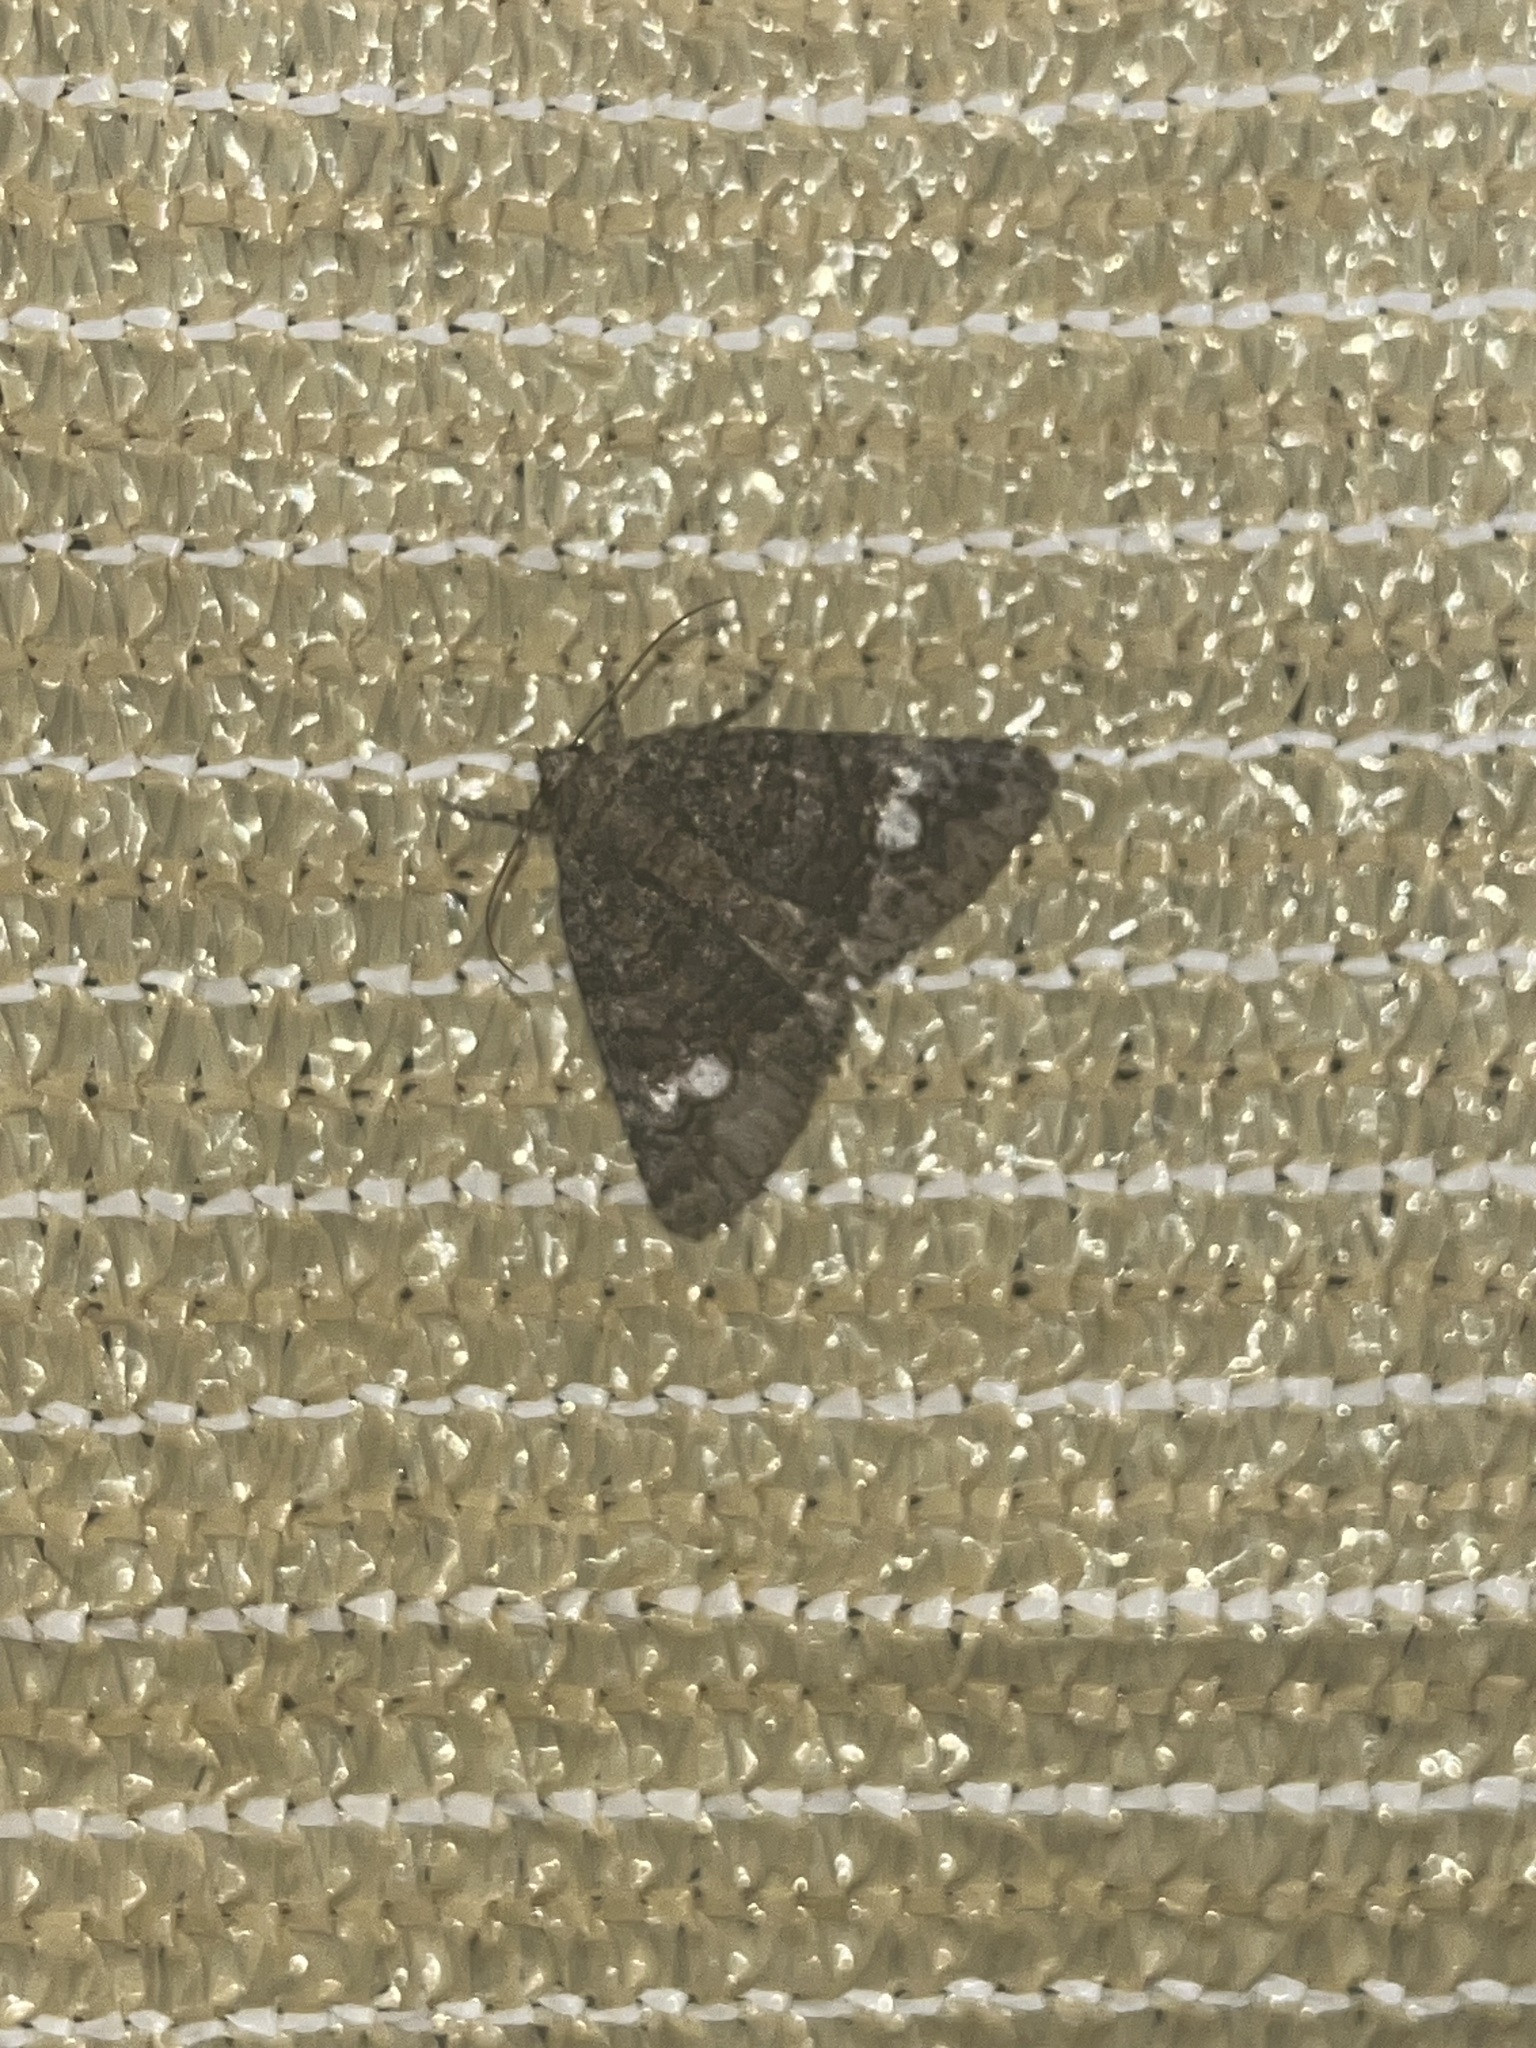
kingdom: Animalia
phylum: Arthropoda
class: Insecta
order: Lepidoptera
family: Erebidae
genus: Elousa
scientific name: Elousa mima
